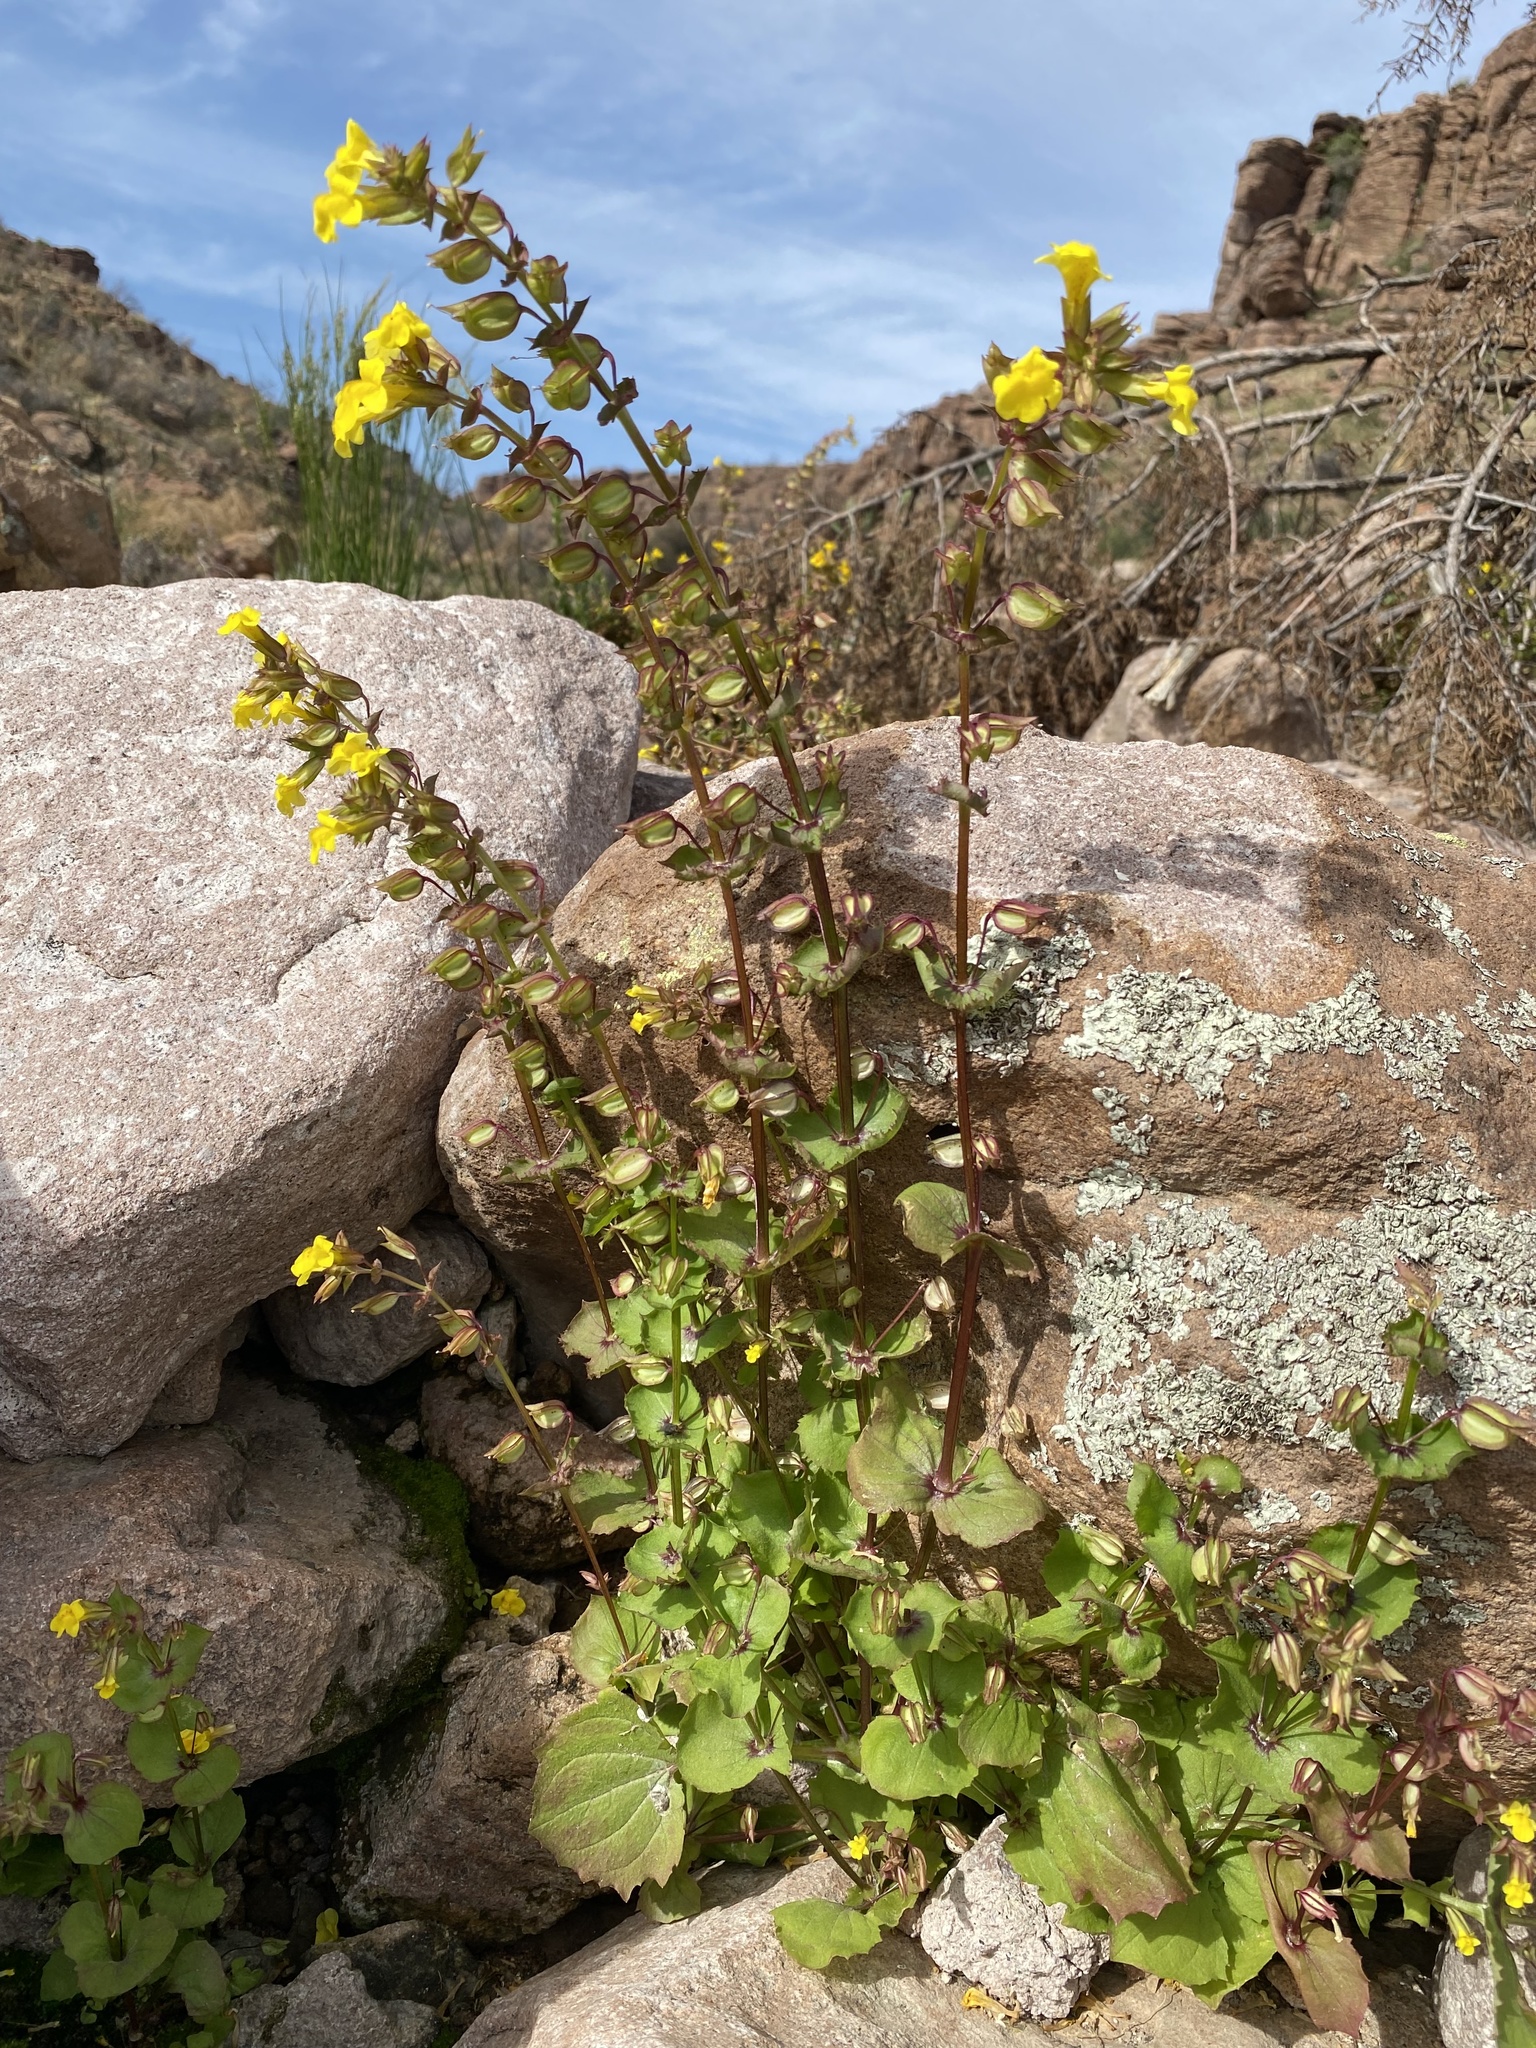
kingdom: Plantae
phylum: Tracheophyta
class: Magnoliopsida
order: Lamiales
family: Phrymaceae
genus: Erythranthe
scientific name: Erythranthe guttata
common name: Monkeyflower
